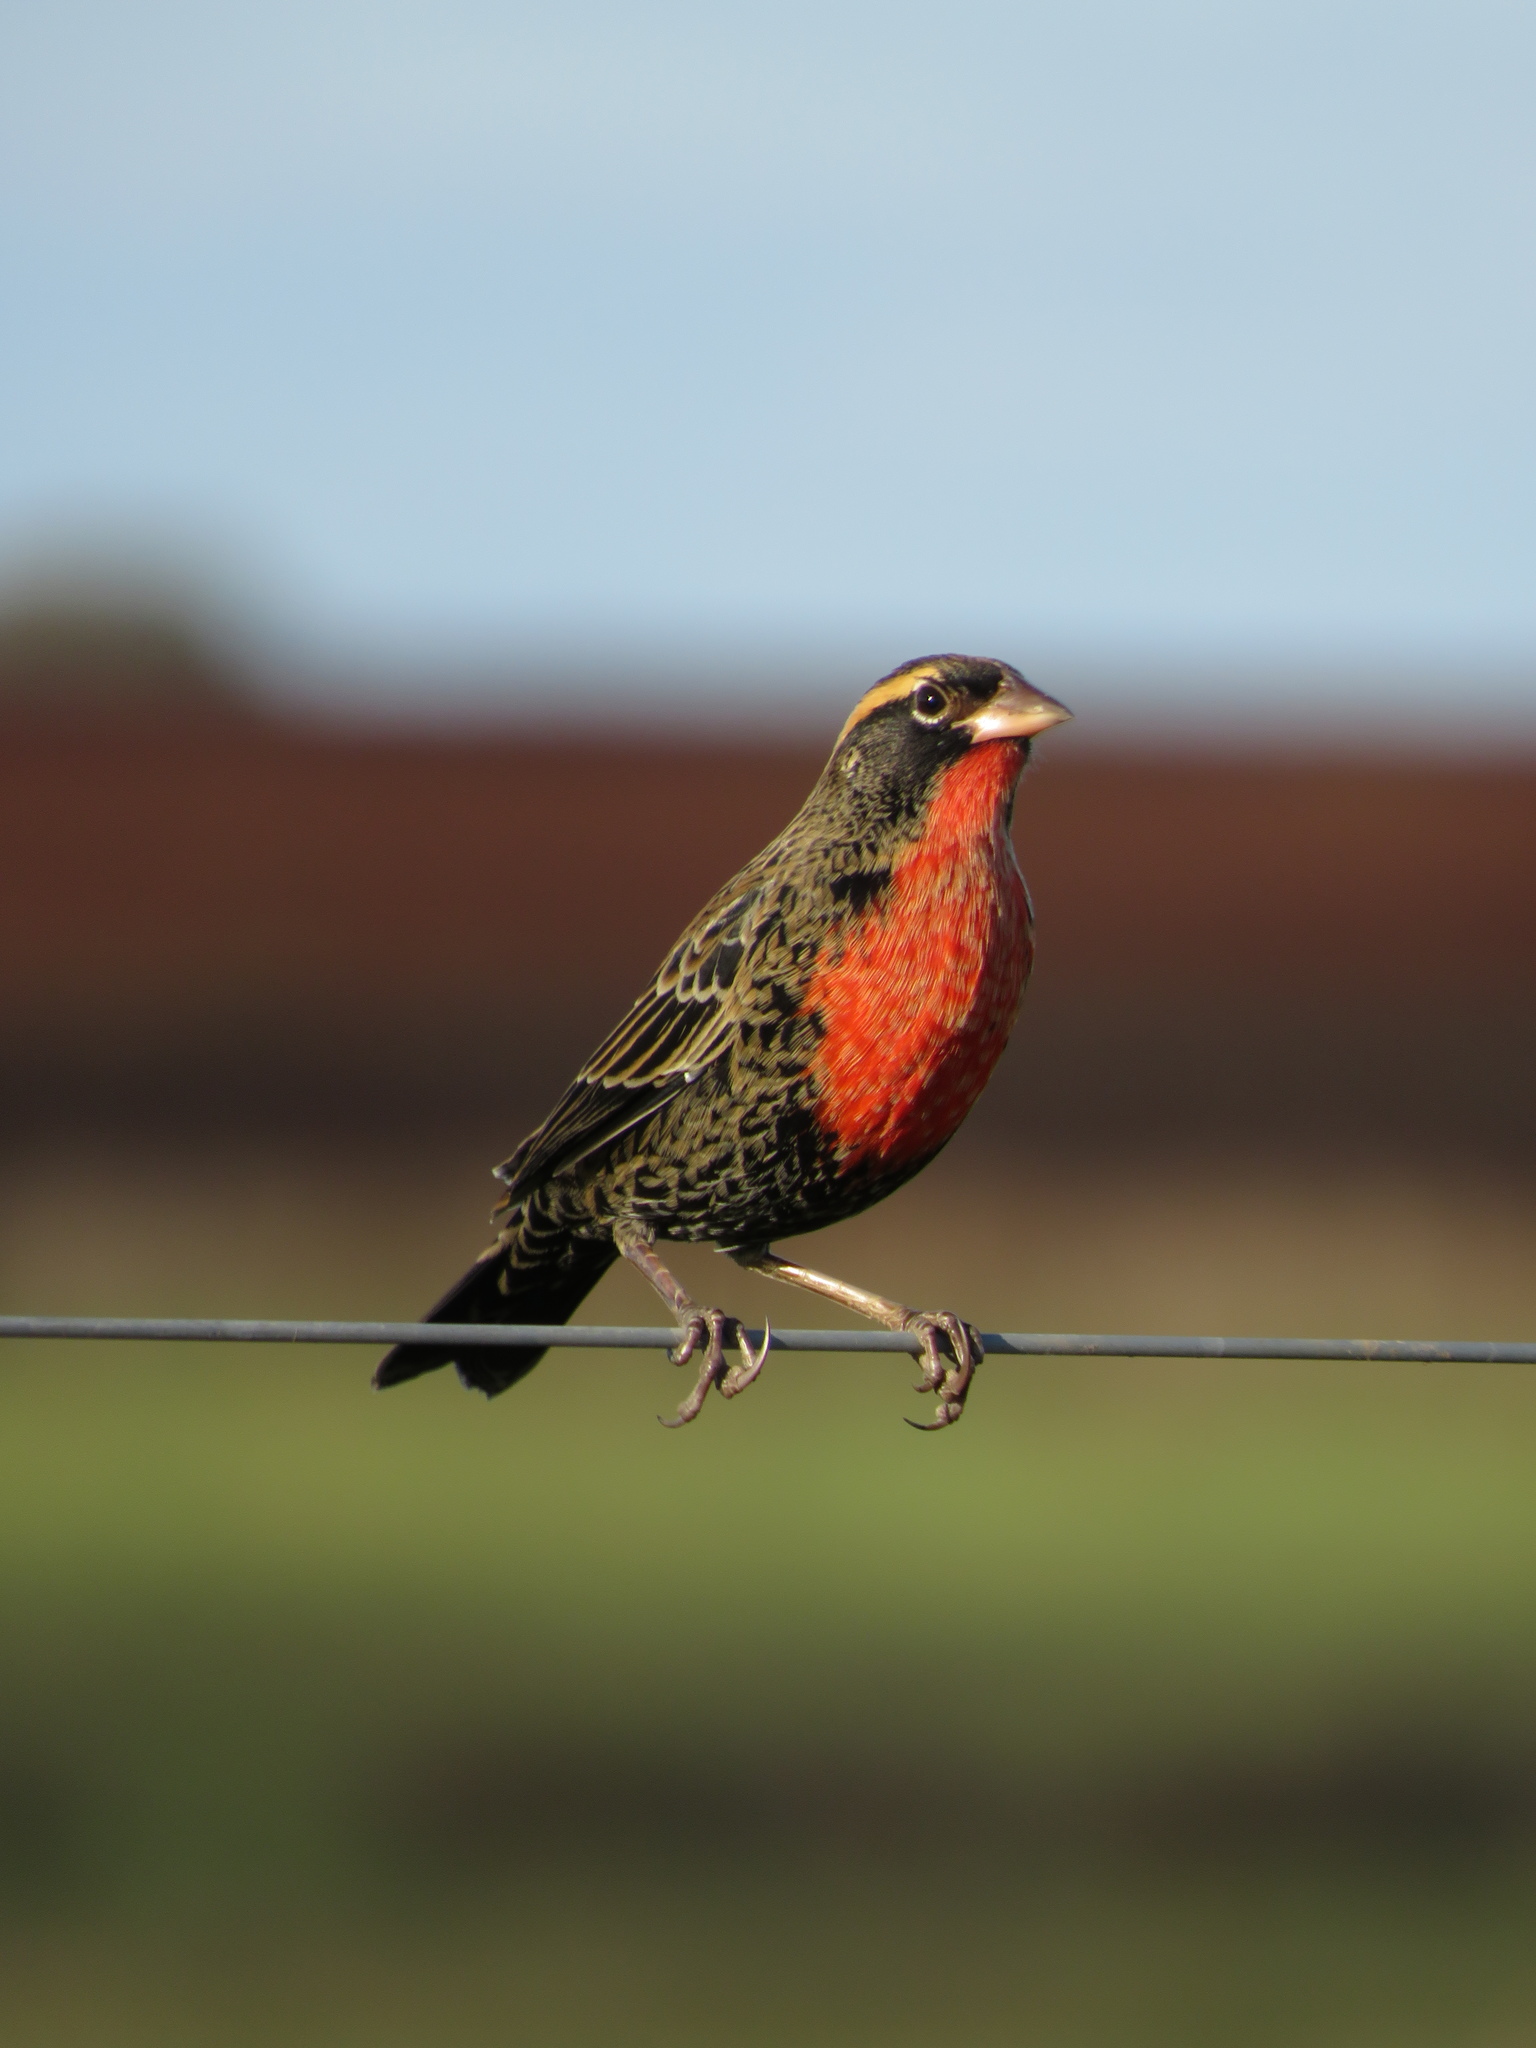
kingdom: Animalia
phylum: Chordata
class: Aves
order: Passeriformes
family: Icteridae
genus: Sturnella
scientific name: Sturnella superciliaris
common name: White-browed blackbird
